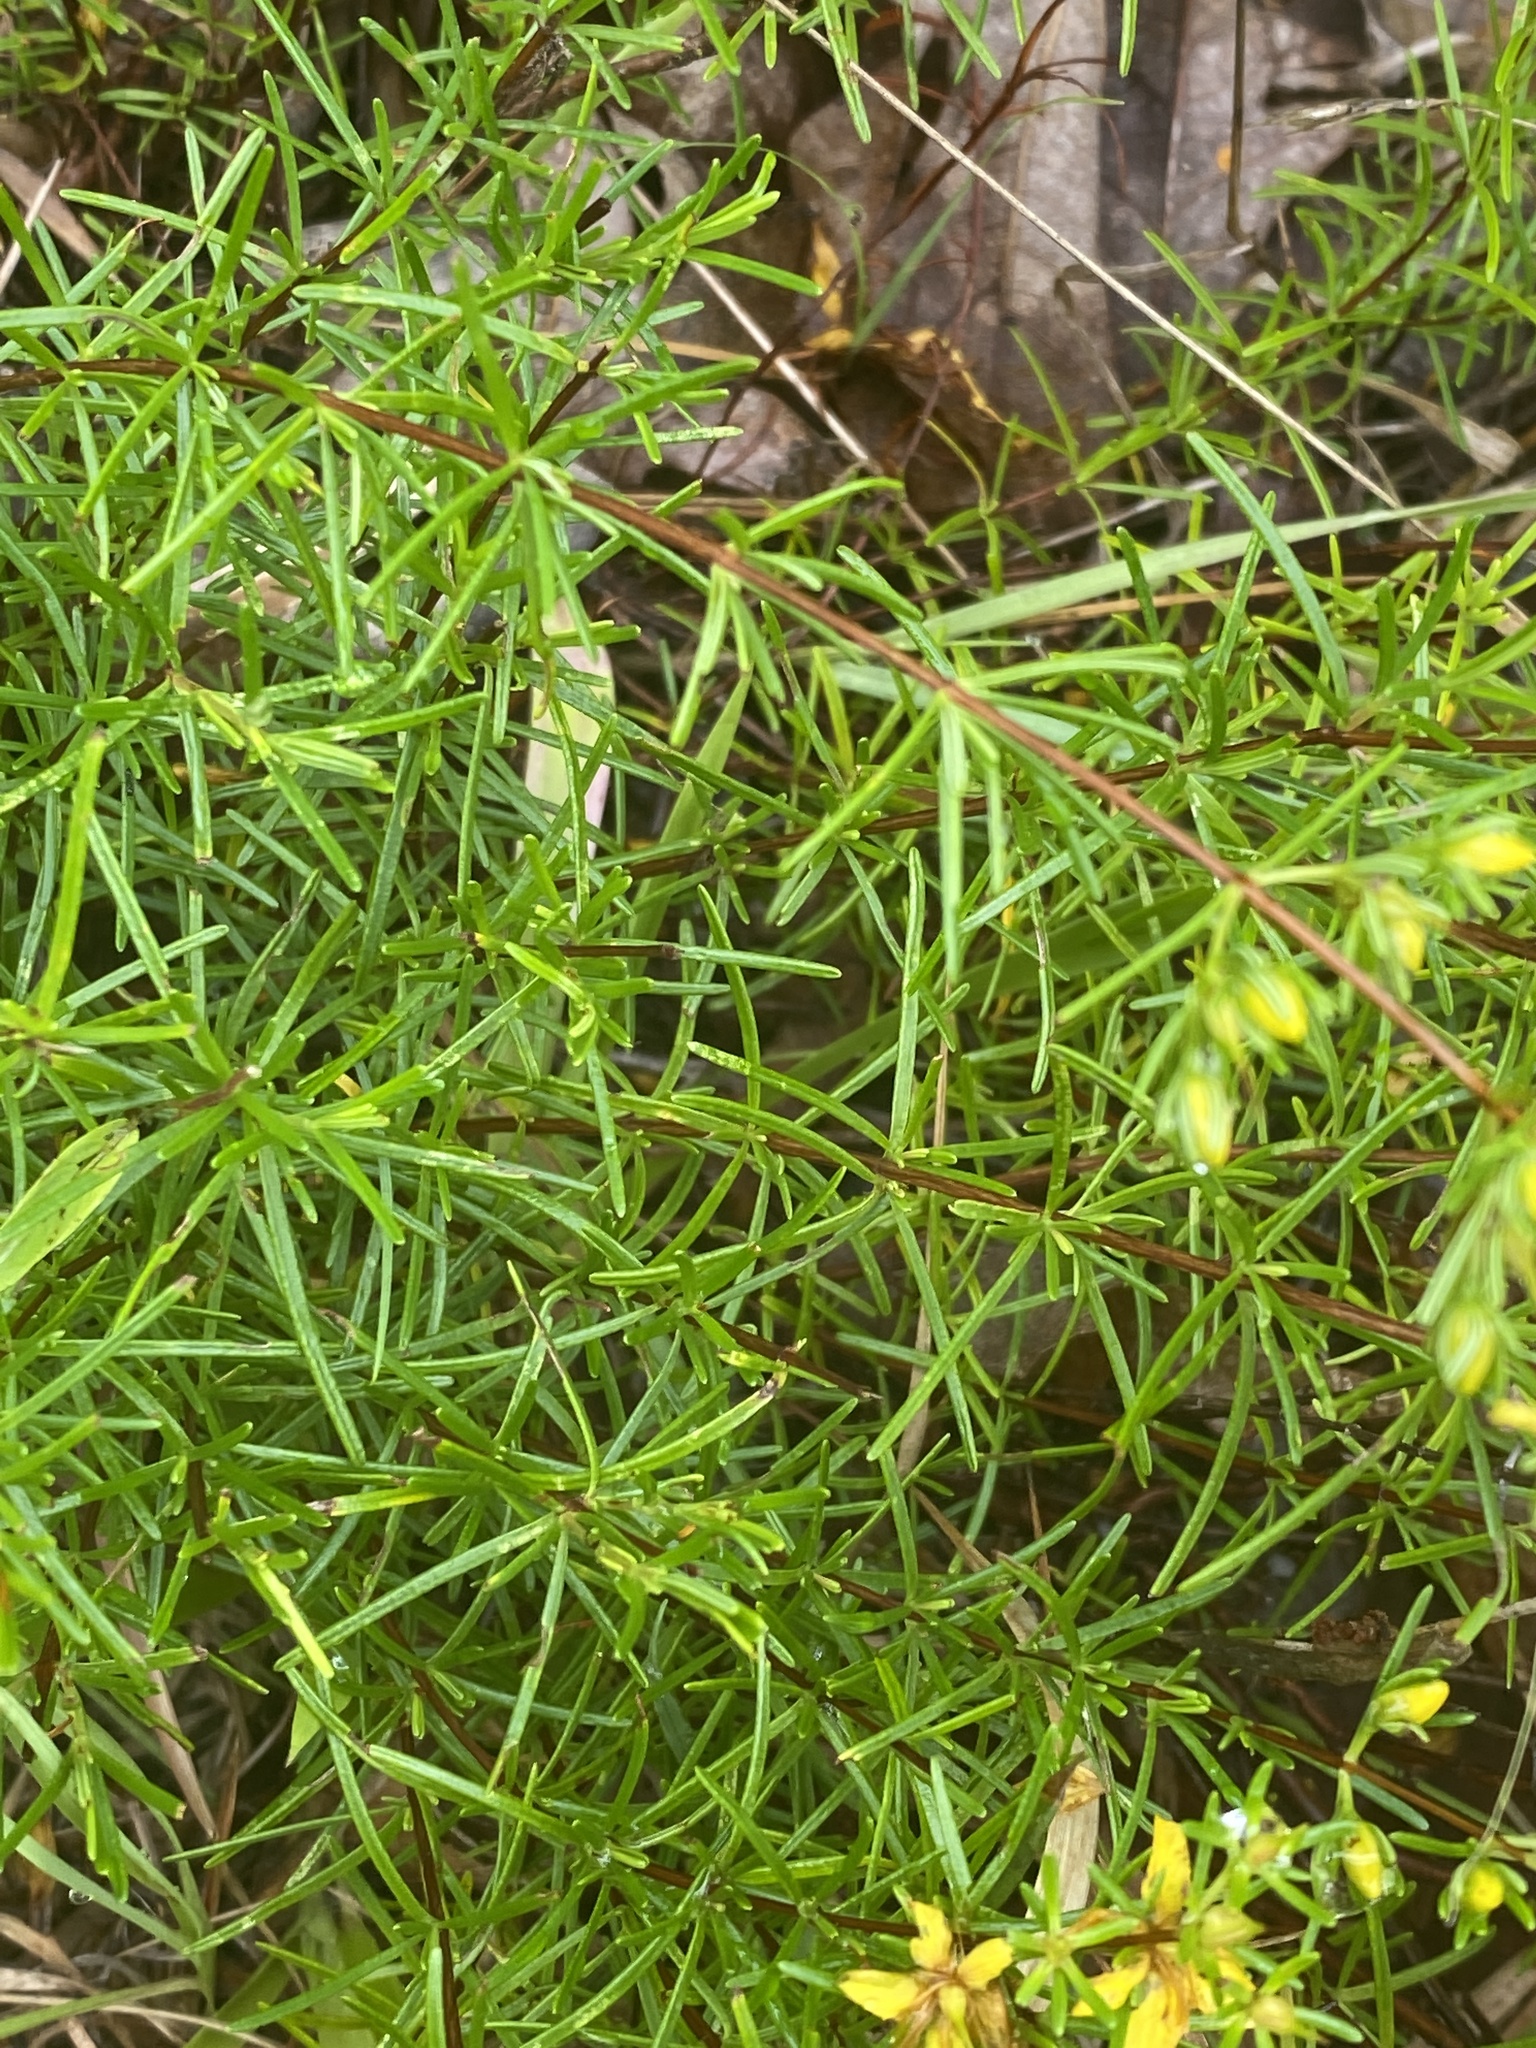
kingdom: Plantae
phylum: Tracheophyta
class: Magnoliopsida
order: Malpighiales
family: Hypericaceae
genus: Hypericum
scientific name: Hypericum lloydii
